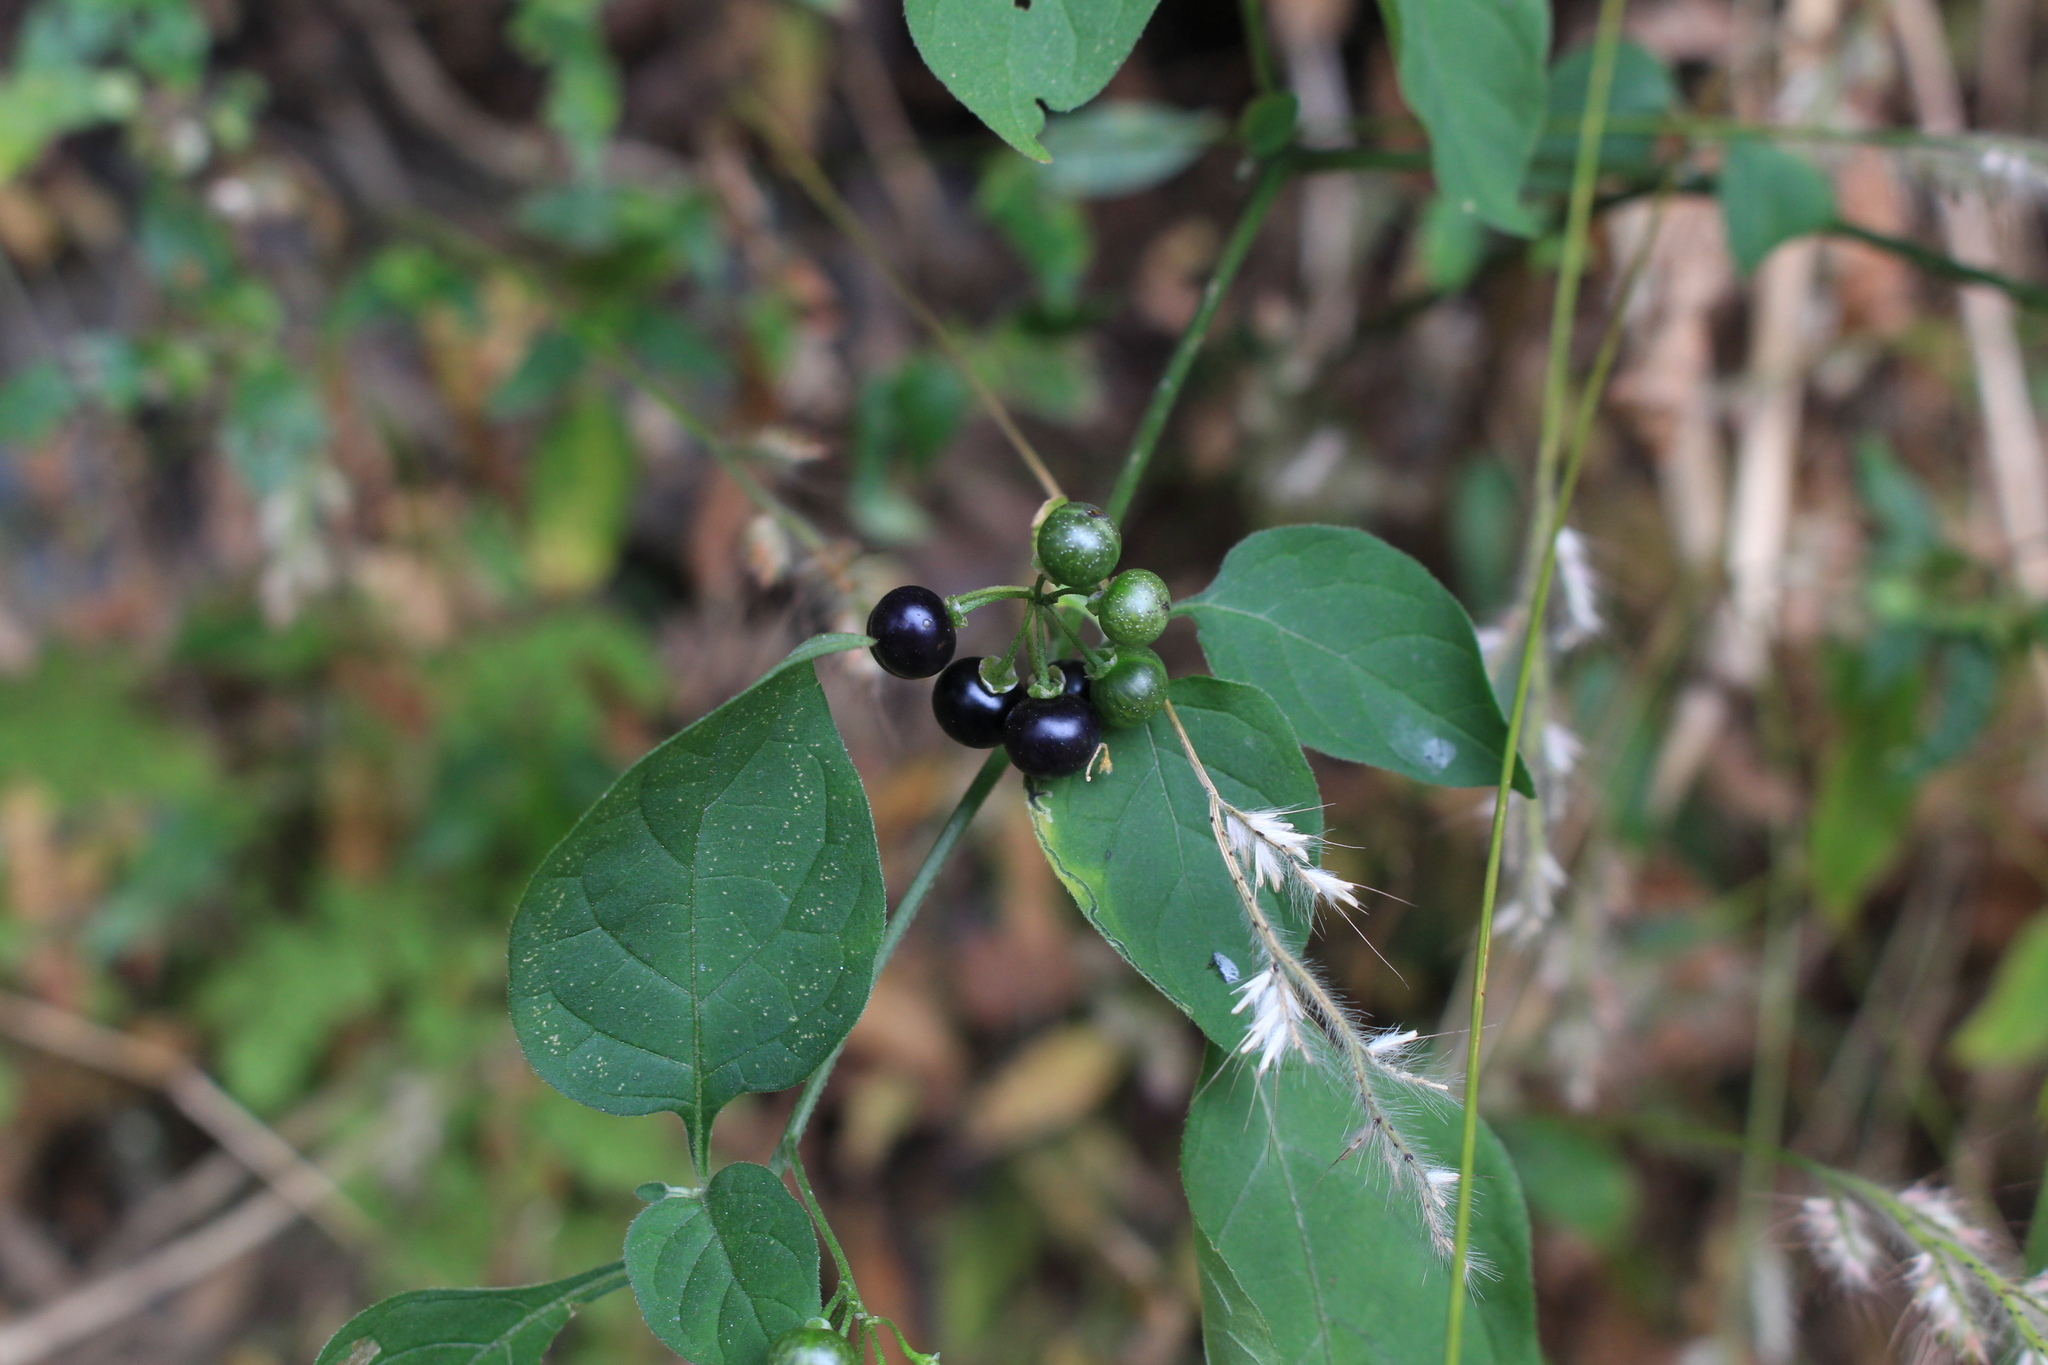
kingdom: Plantae
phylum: Tracheophyta
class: Magnoliopsida
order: Solanales
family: Solanaceae
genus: Solanum
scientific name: Solanum americanum
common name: American black nightshade
